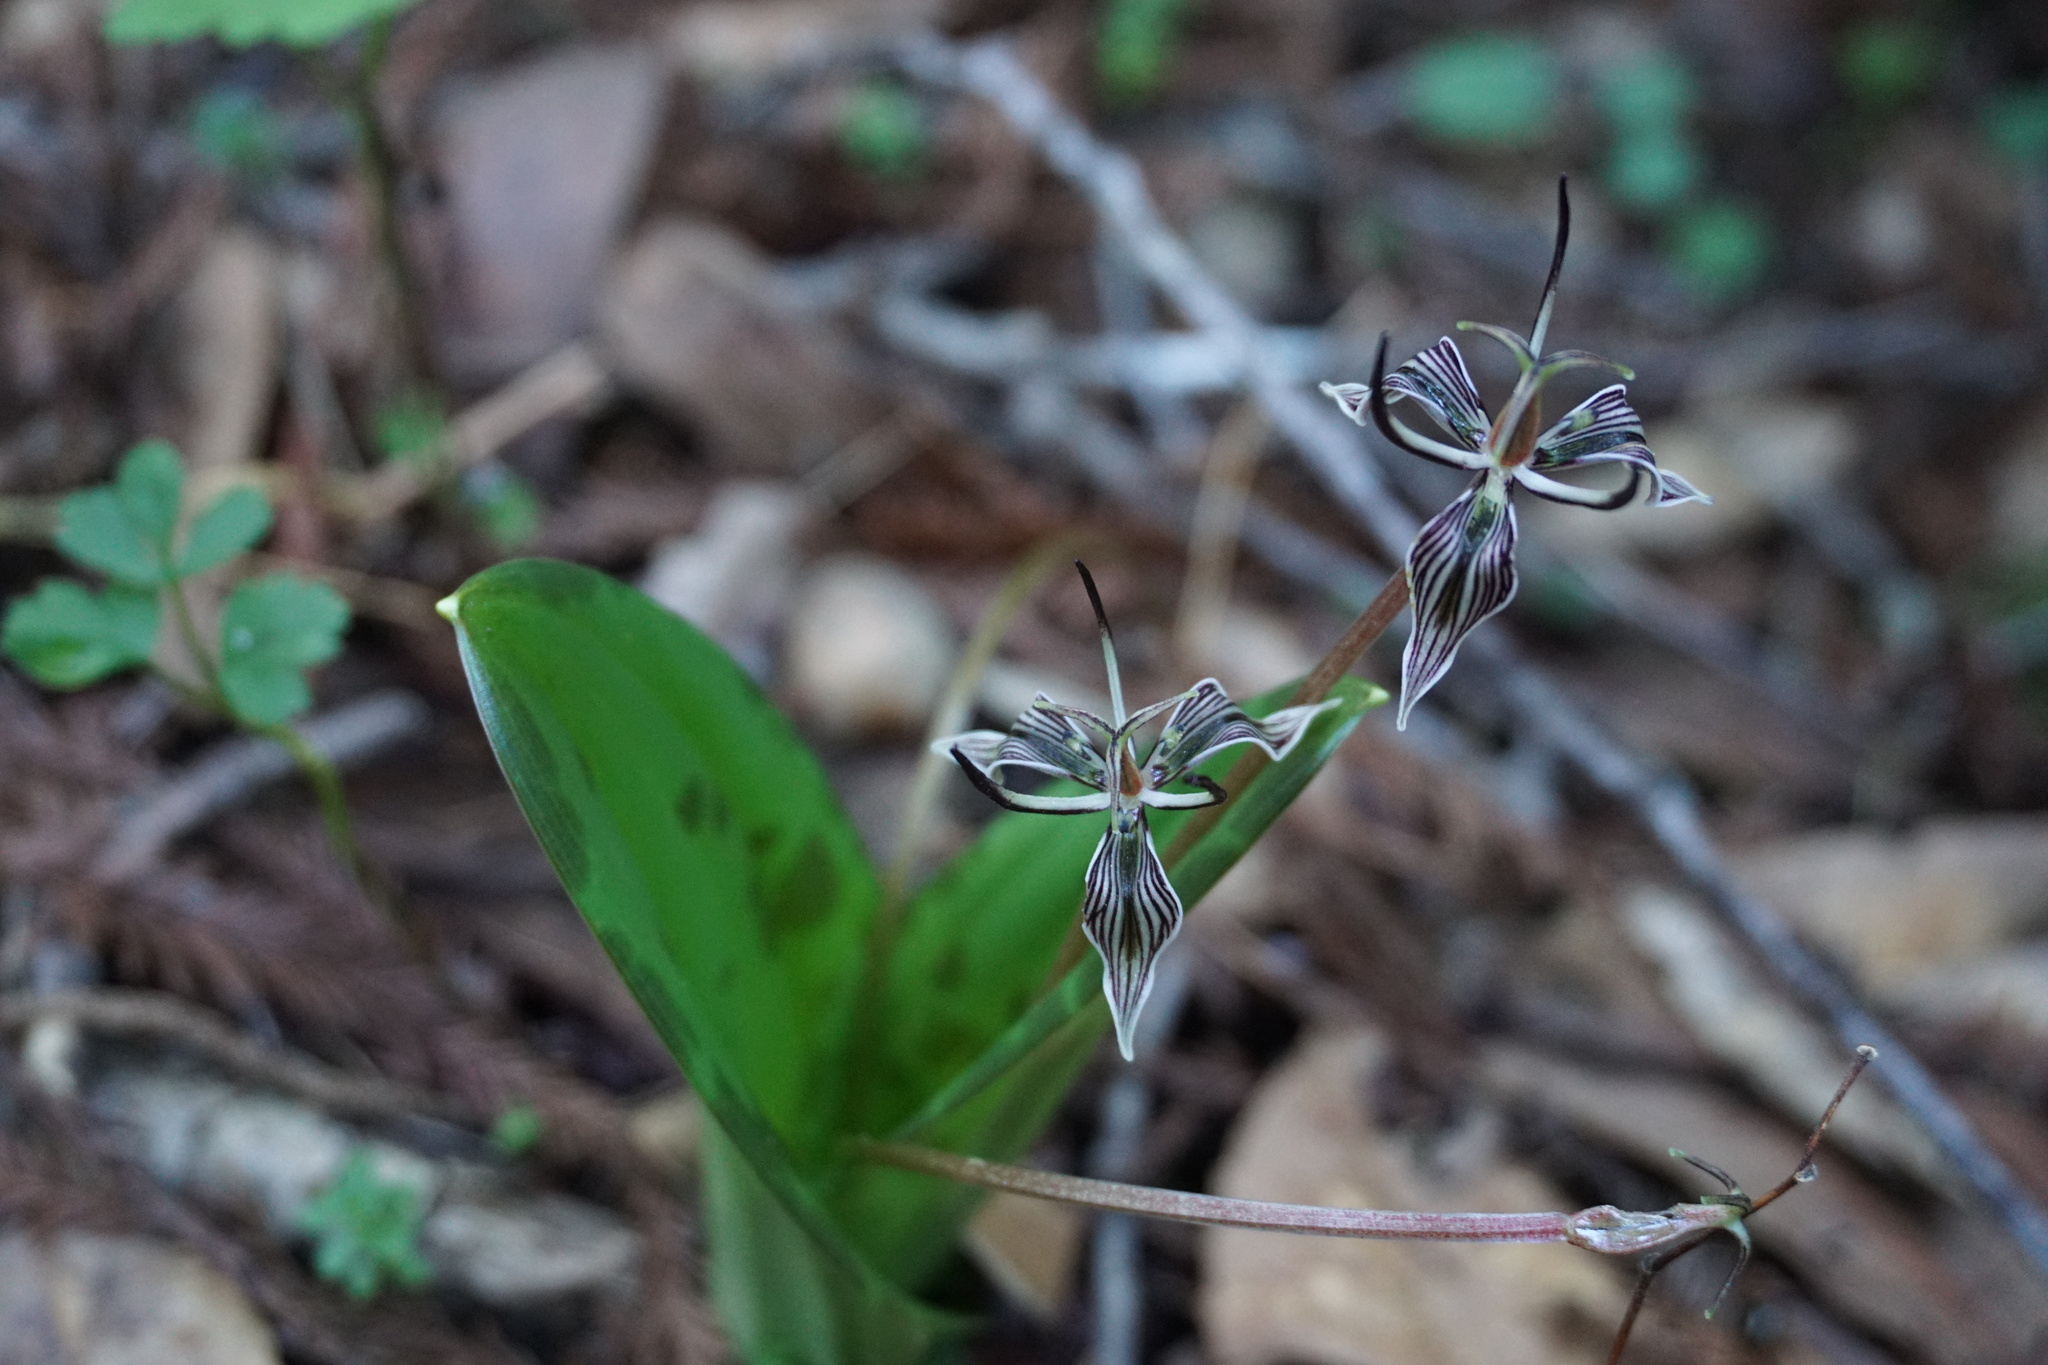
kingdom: Plantae
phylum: Tracheophyta
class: Liliopsida
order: Liliales
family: Liliaceae
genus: Scoliopus
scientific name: Scoliopus bigelovii
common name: Foetid adder's-tongue
